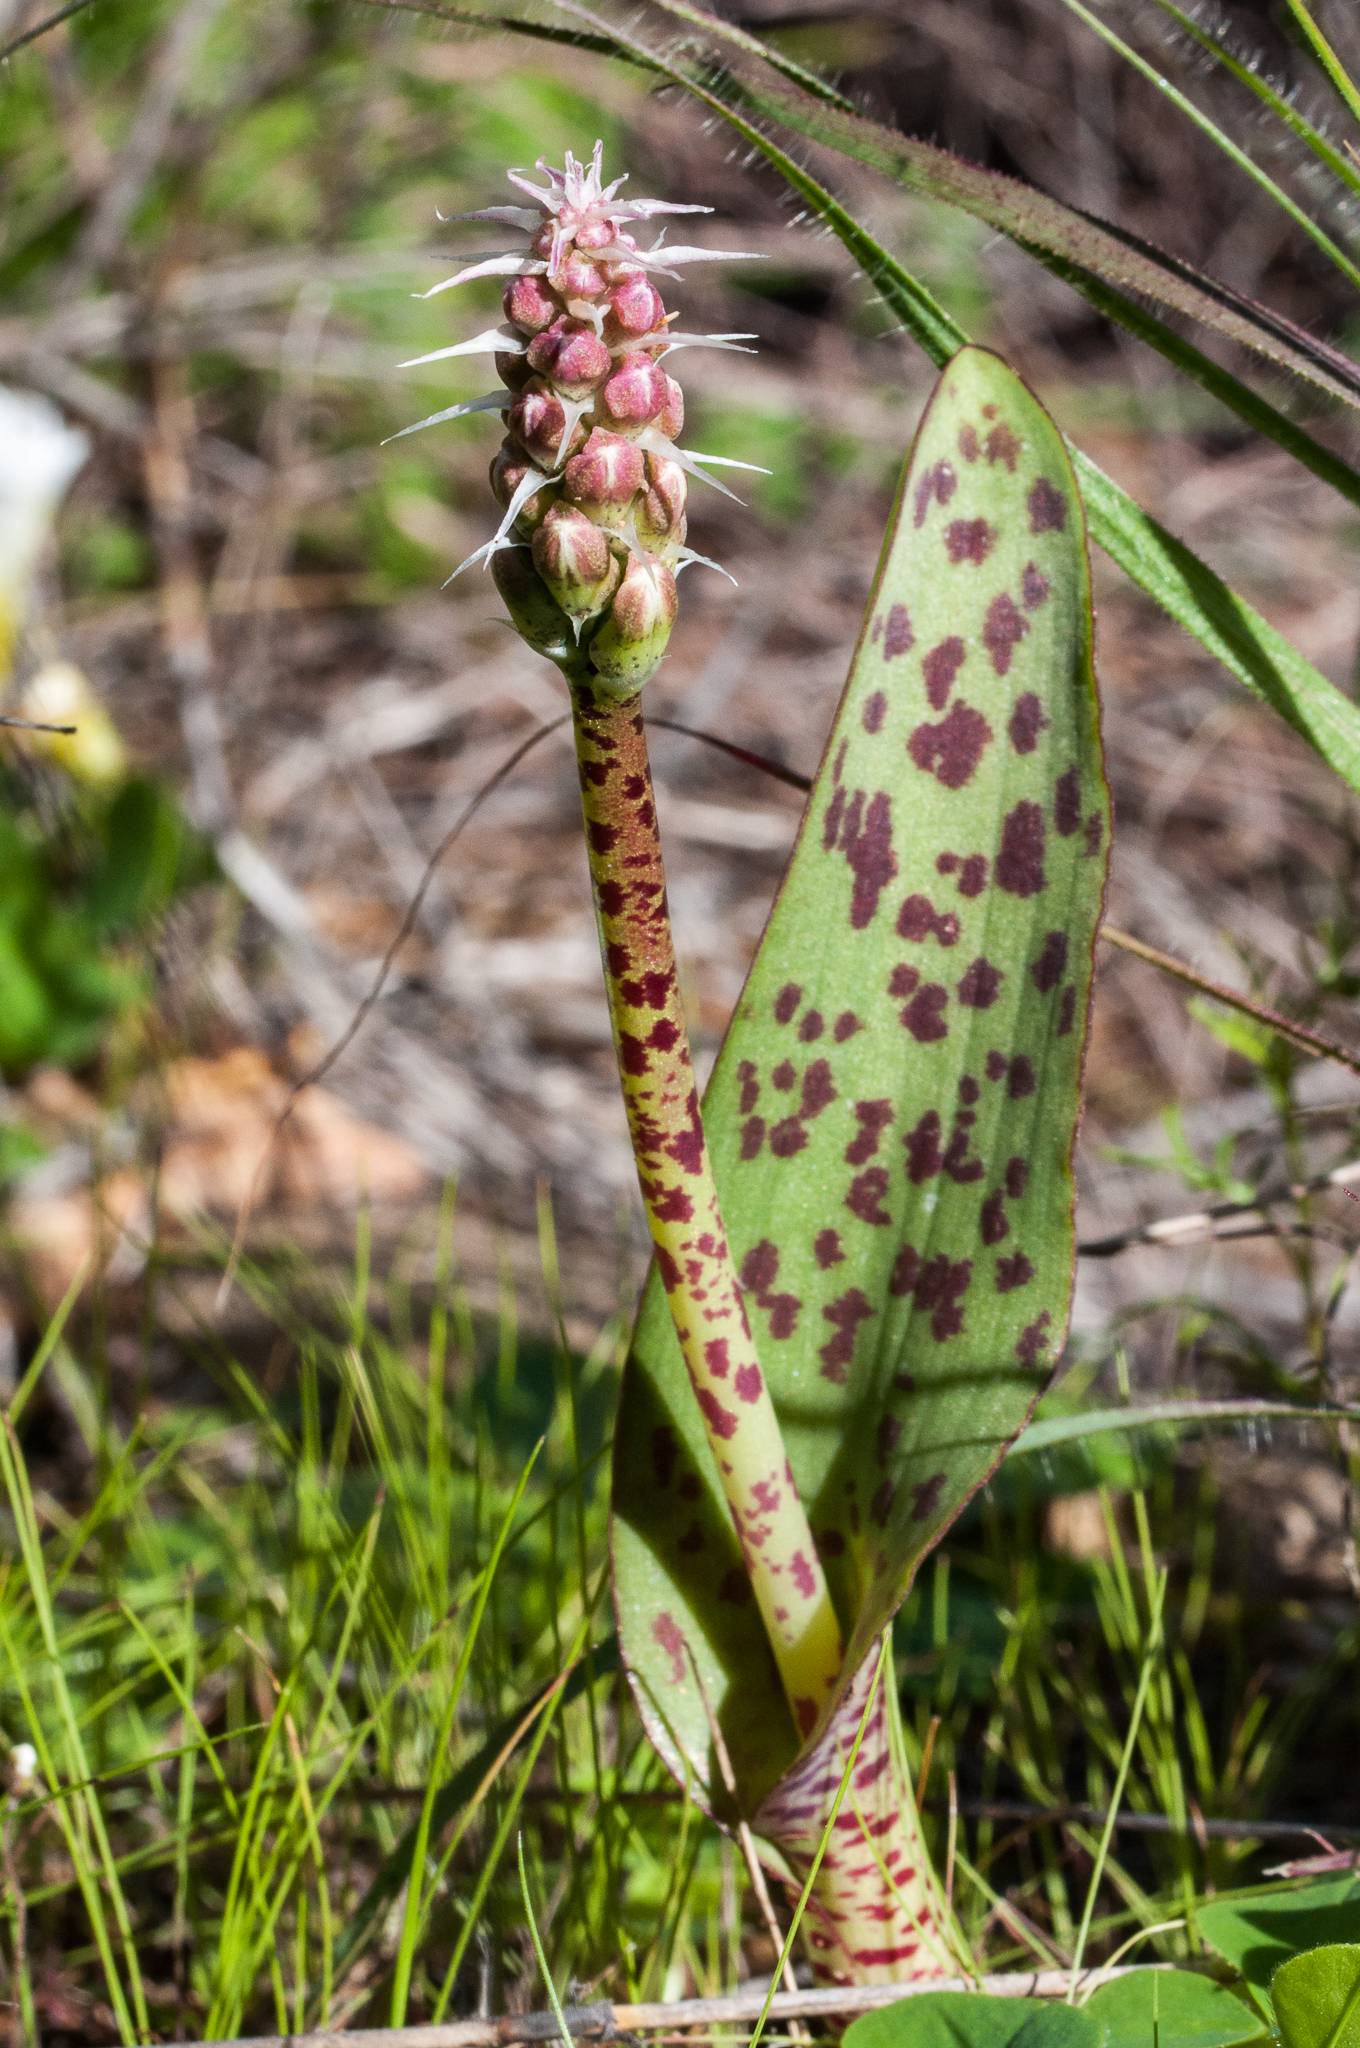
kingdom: Plantae
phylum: Tracheophyta
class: Liliopsida
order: Asparagales
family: Asparagaceae
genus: Lachenalia
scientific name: Lachenalia longibracteata
